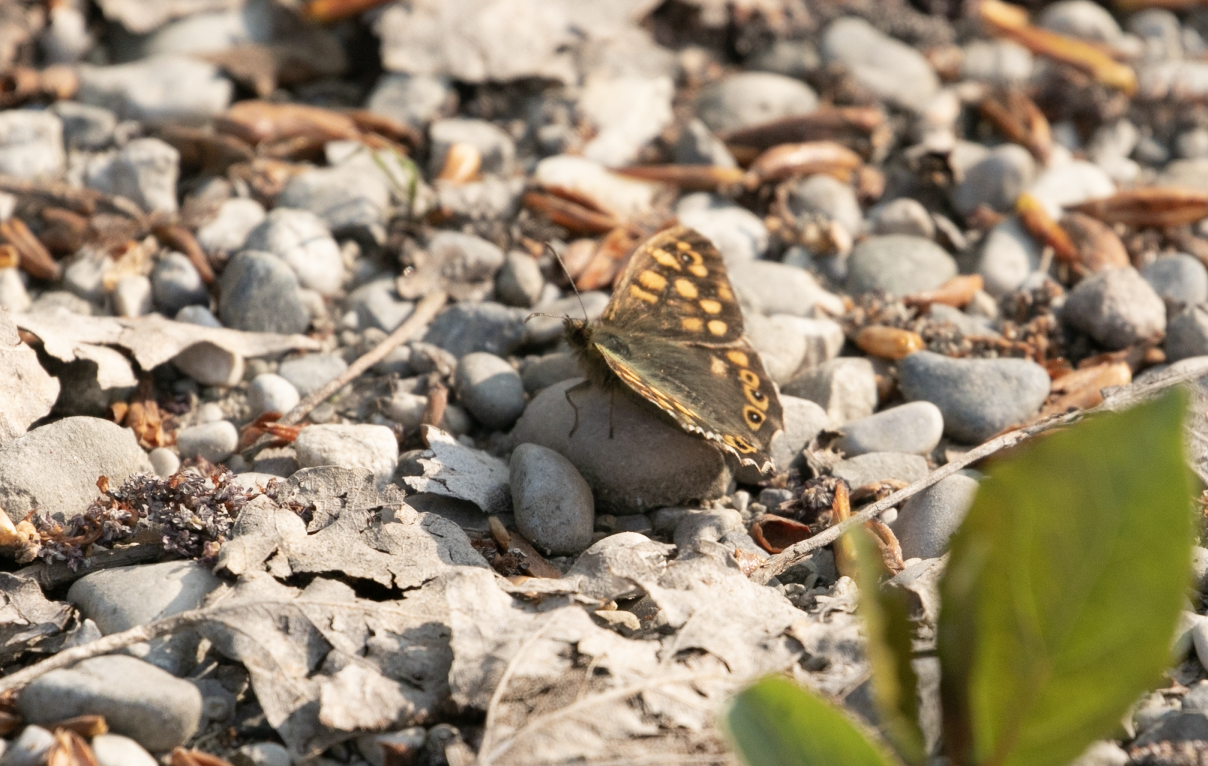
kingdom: Animalia
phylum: Arthropoda
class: Insecta
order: Lepidoptera
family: Nymphalidae
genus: Pararge
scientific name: Pararge aegeria
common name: Speckled wood
